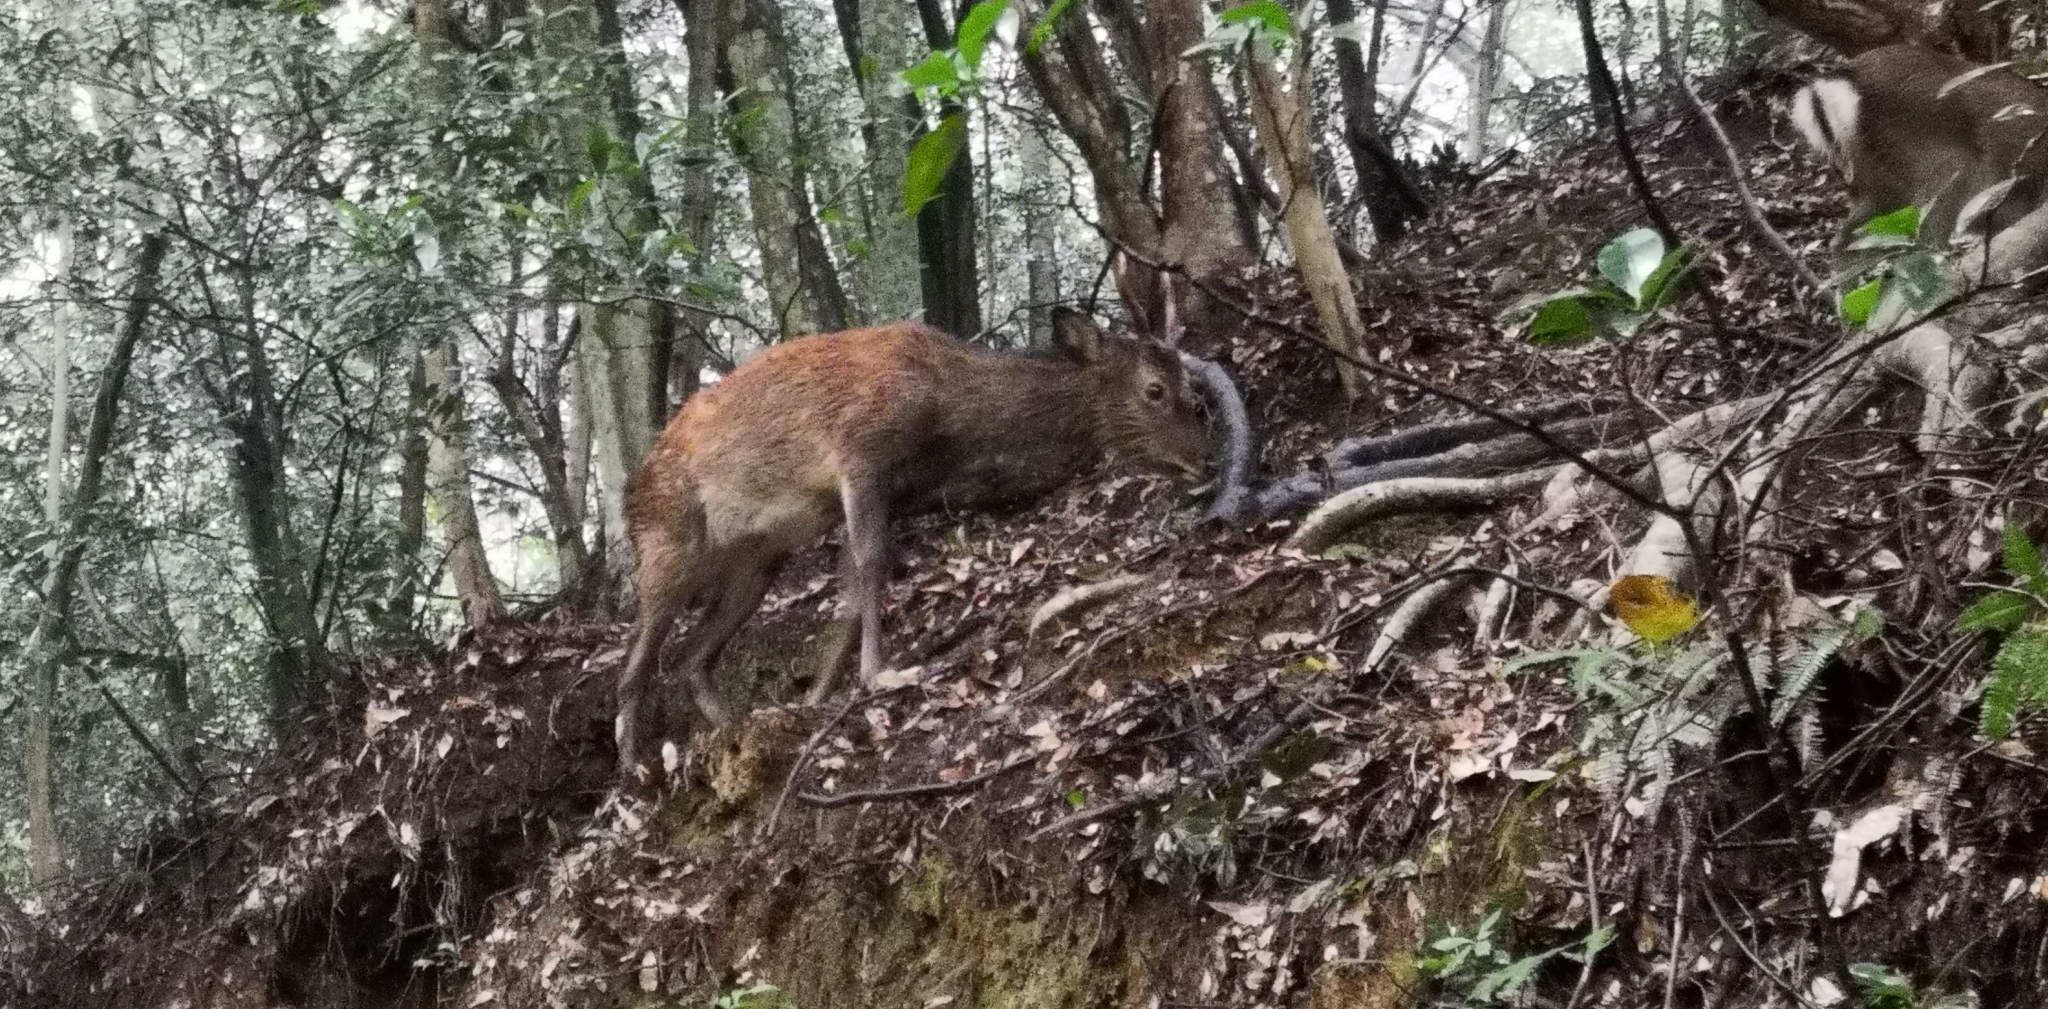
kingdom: Animalia
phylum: Chordata
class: Mammalia
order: Artiodactyla
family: Cervidae
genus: Cervus
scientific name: Cervus nippon
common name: Sika deer
